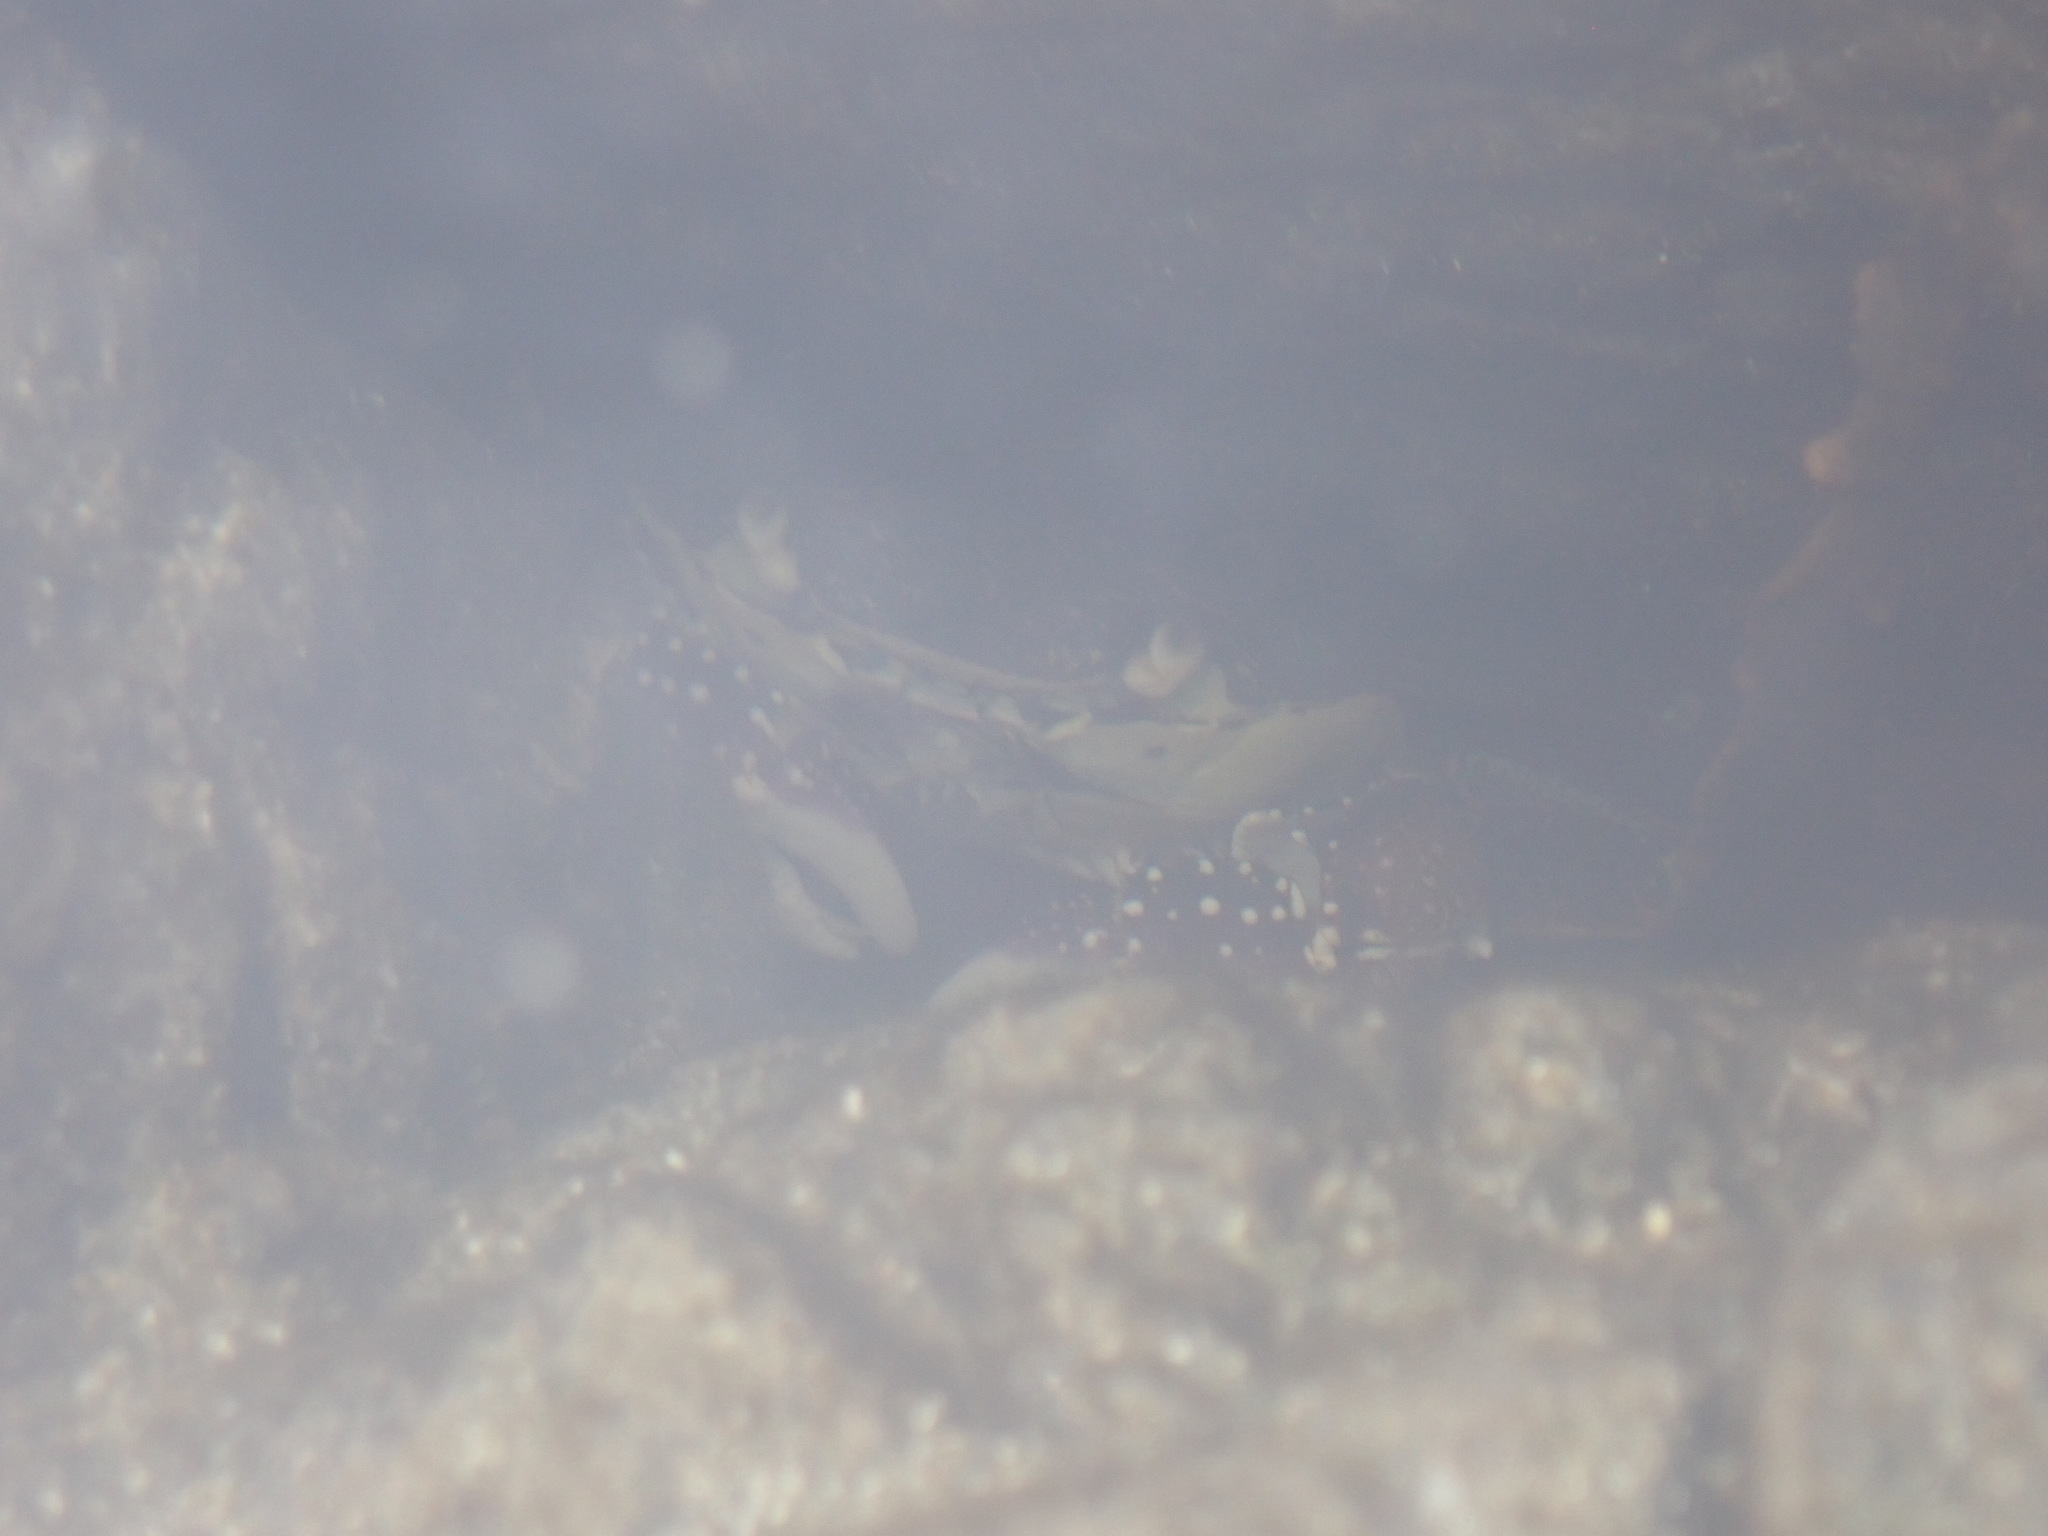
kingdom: Animalia
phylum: Arthropoda
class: Malacostraca
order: Decapoda
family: Grapsidae
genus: Leptograpsus
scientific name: Leptograpsus variegatus
